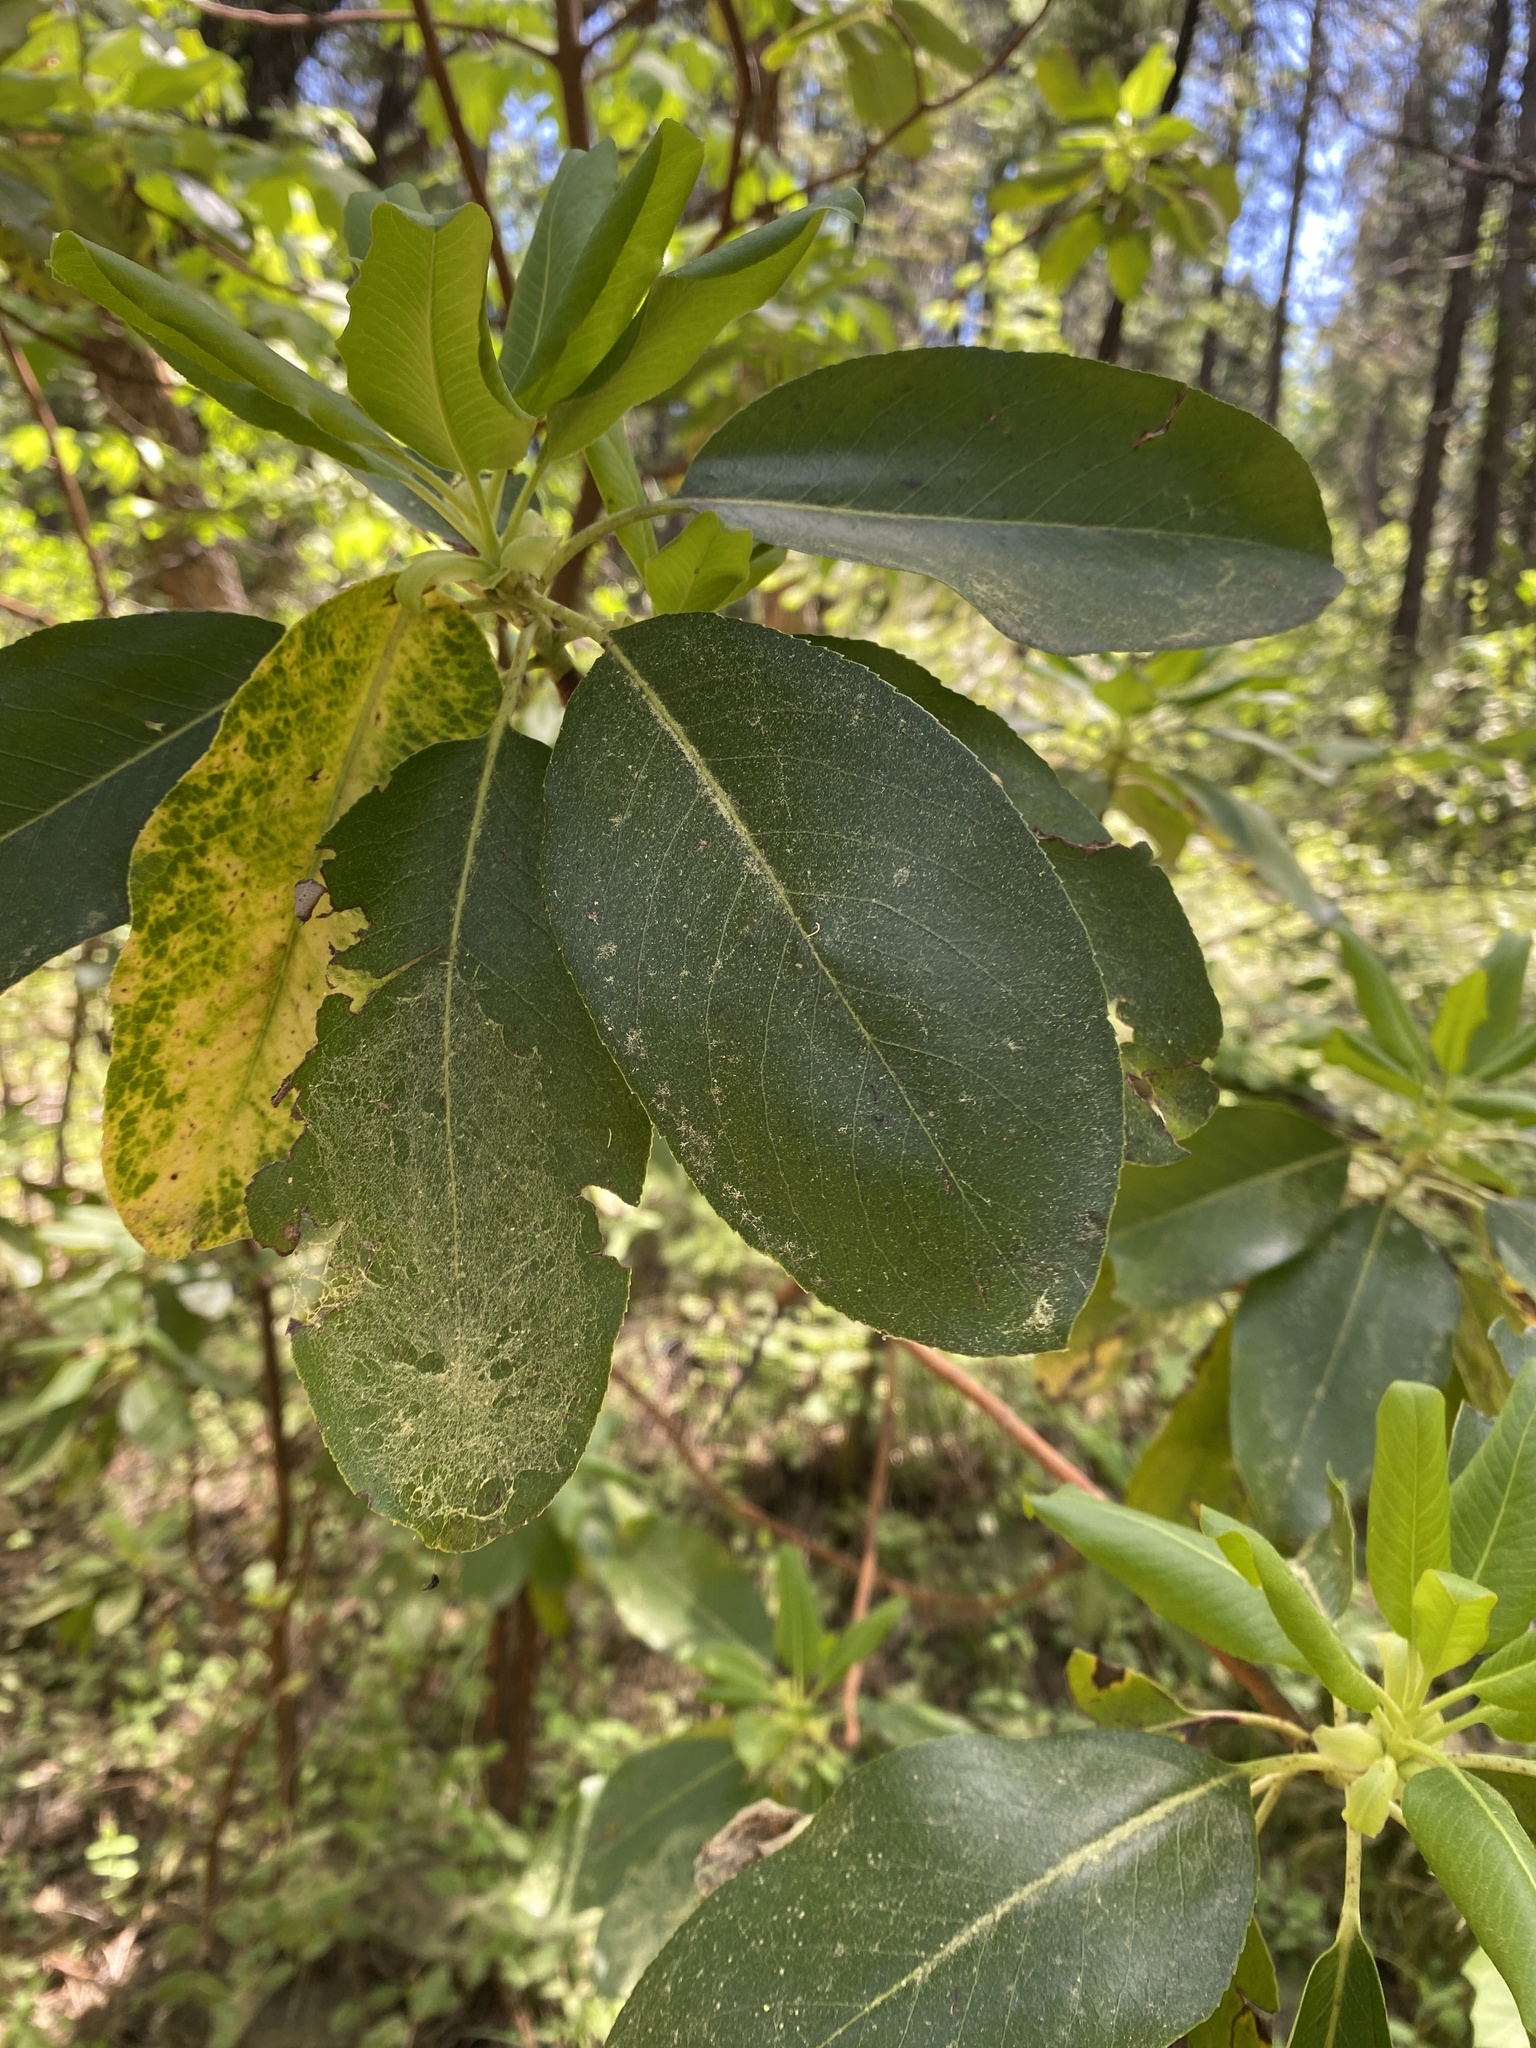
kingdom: Plantae
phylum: Tracheophyta
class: Magnoliopsida
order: Ericales
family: Ericaceae
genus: Arbutus
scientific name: Arbutus menziesii
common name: Pacific madrone
